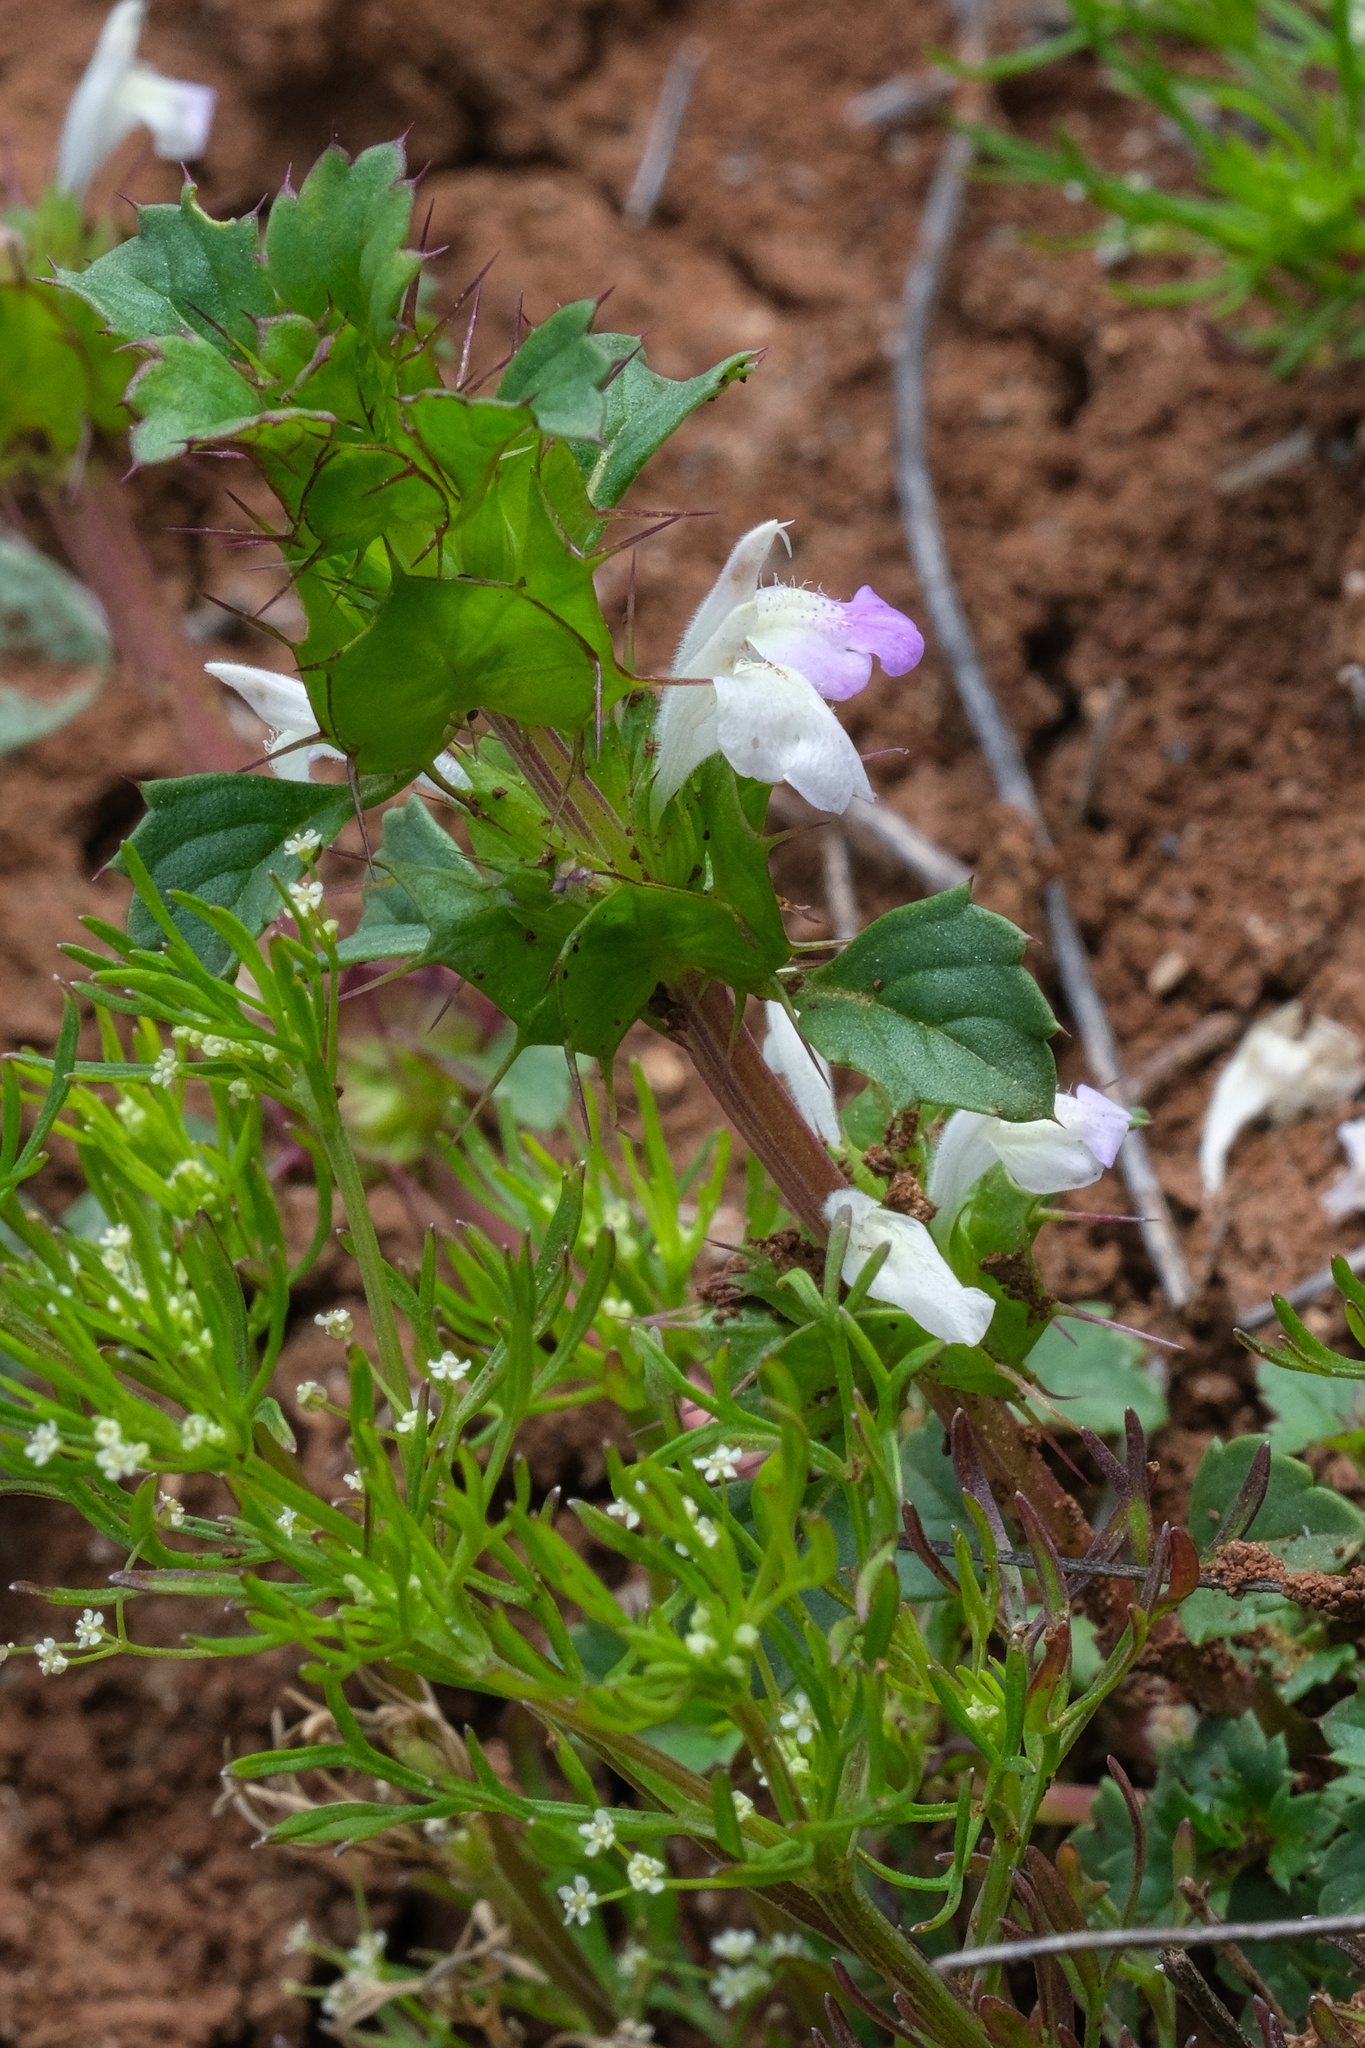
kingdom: Plantae
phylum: Tracheophyta
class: Magnoliopsida
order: Lamiales
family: Lamiaceae
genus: Acanthomintha
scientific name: Acanthomintha ilicifolia
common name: San diego thorn-mint
